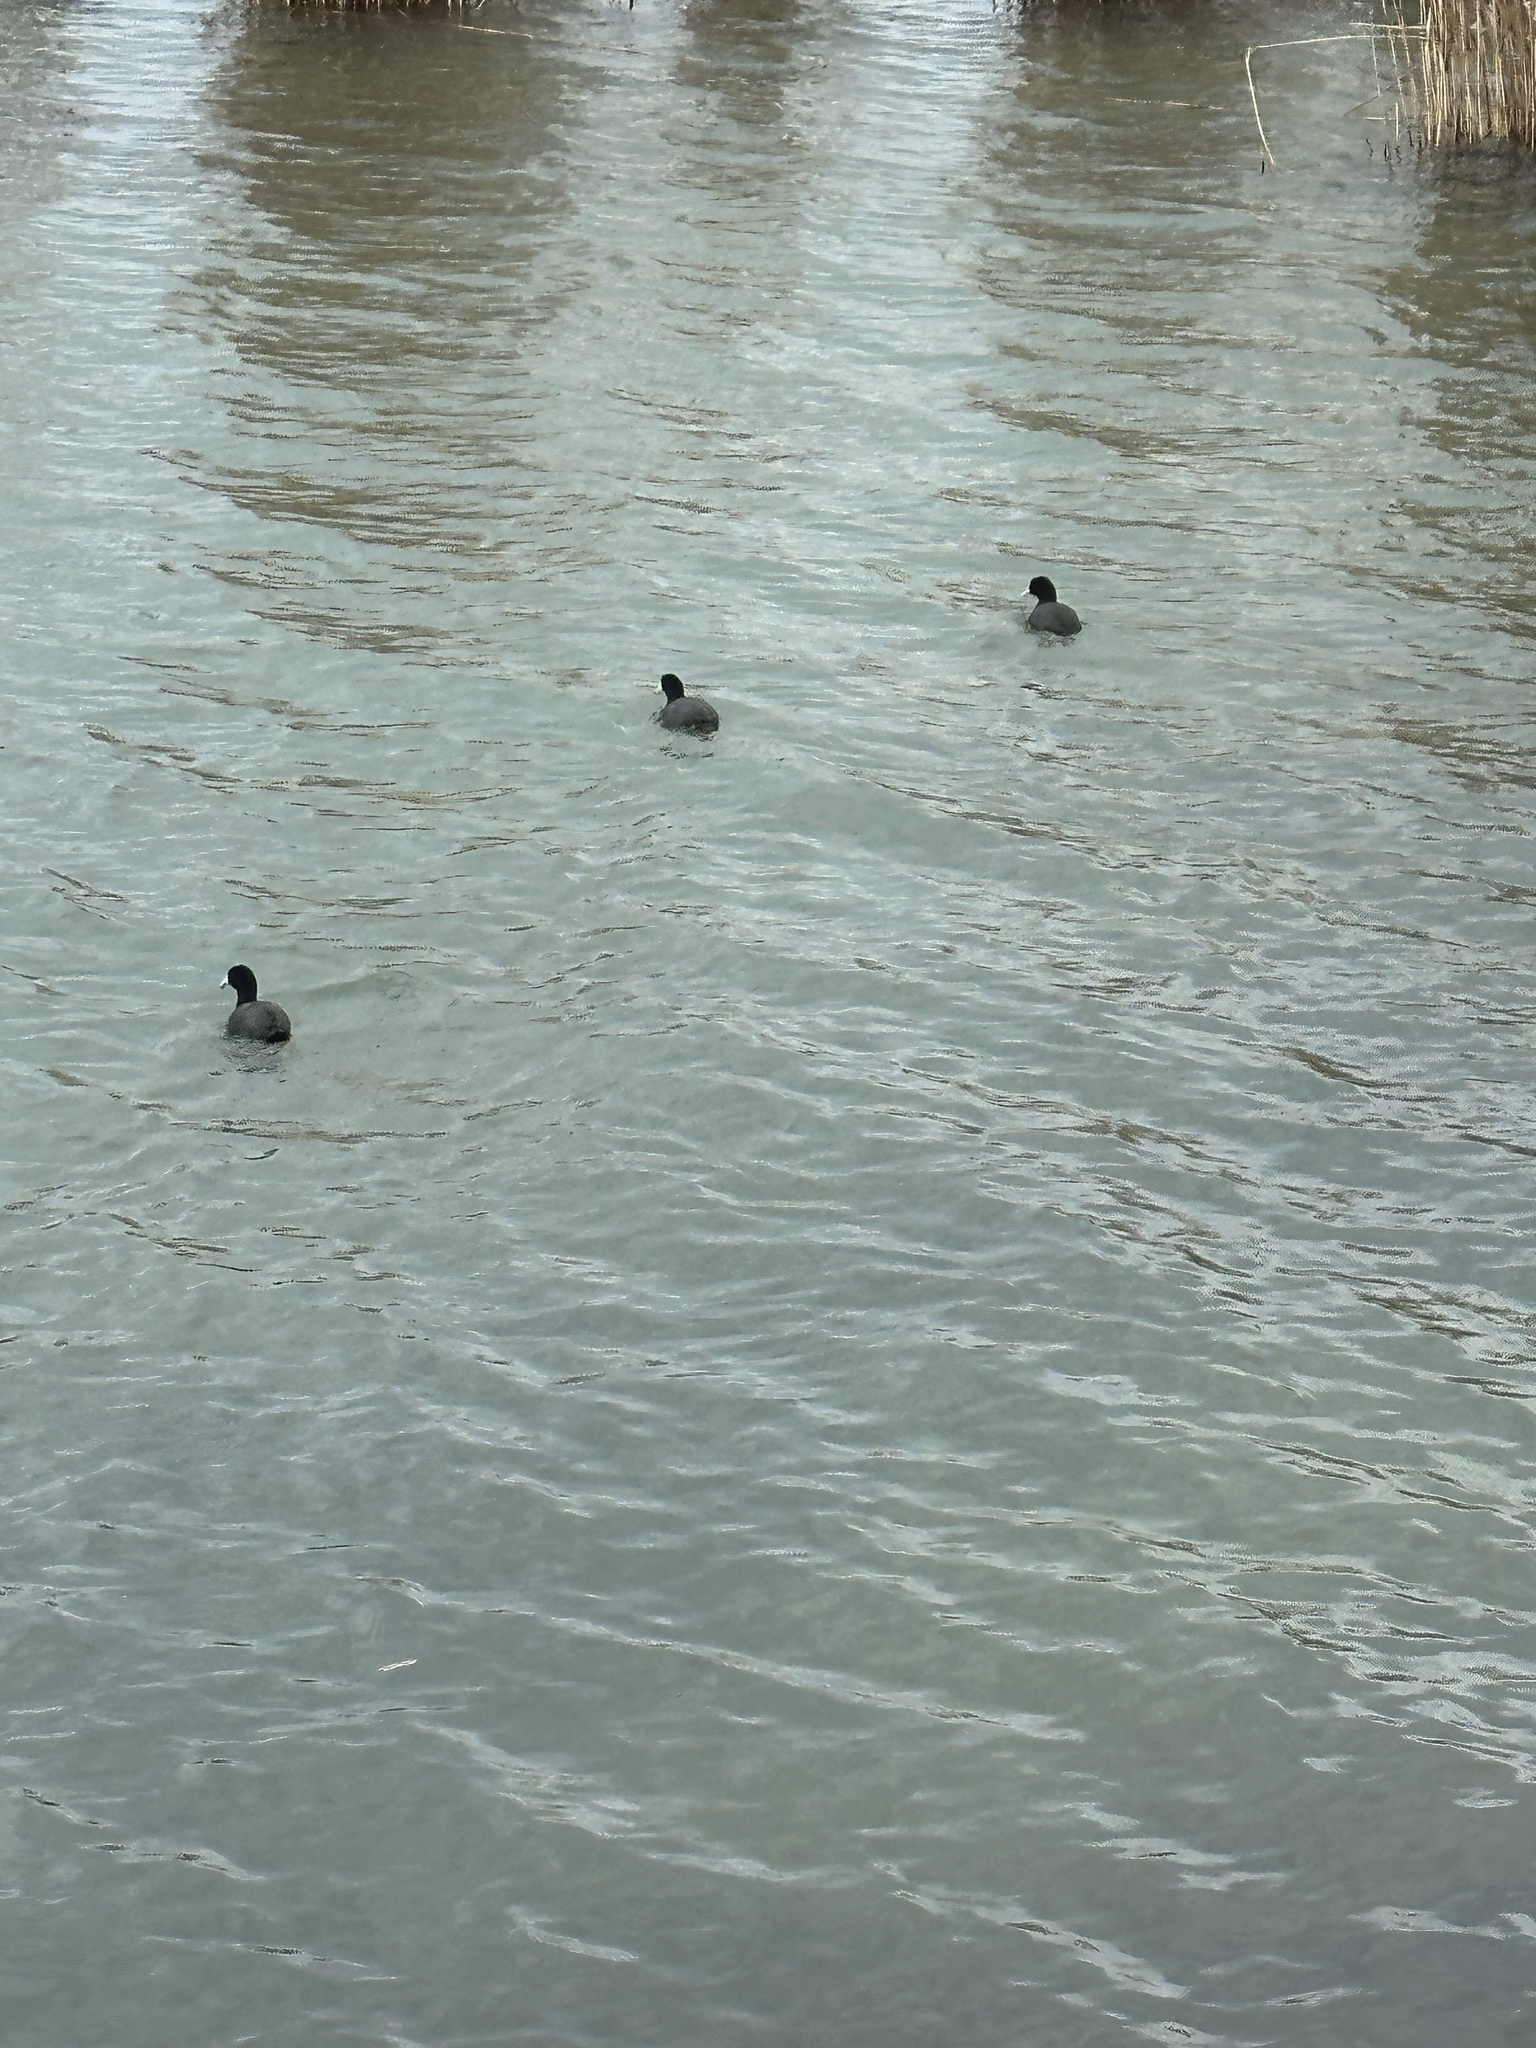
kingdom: Animalia
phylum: Chordata
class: Aves
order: Gruiformes
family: Rallidae
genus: Fulica
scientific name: Fulica atra
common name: Eurasian coot
